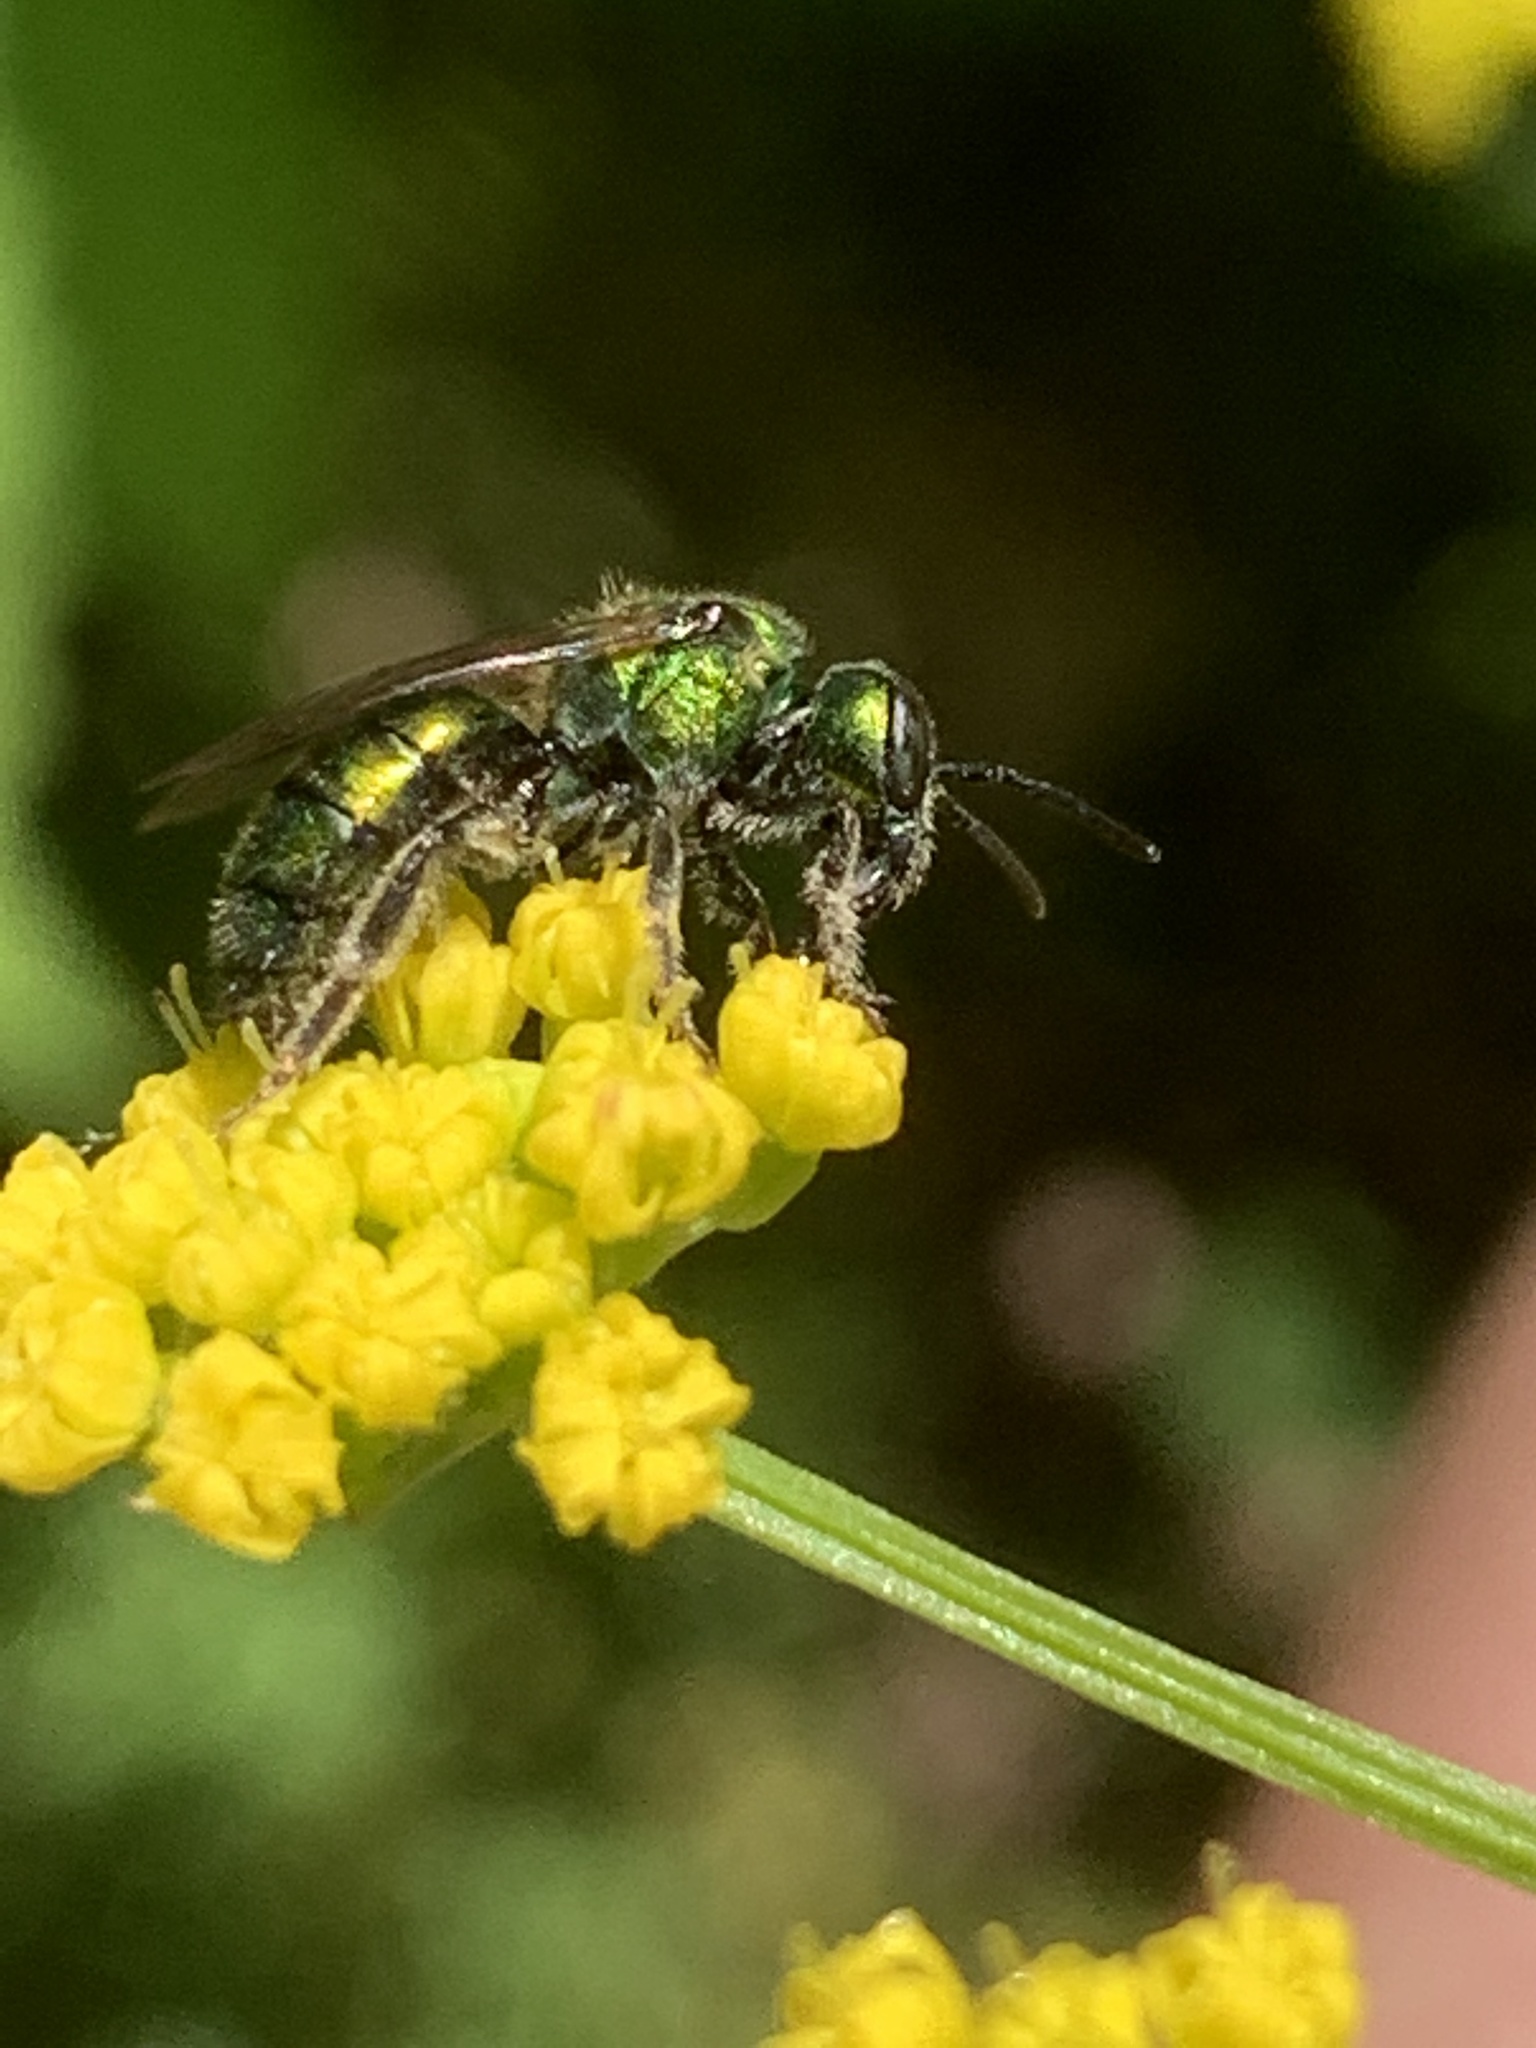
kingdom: Animalia
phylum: Arthropoda
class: Insecta
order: Hymenoptera
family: Halictidae
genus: Augochlora
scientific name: Augochlora pura
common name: Pure green sweat bee
